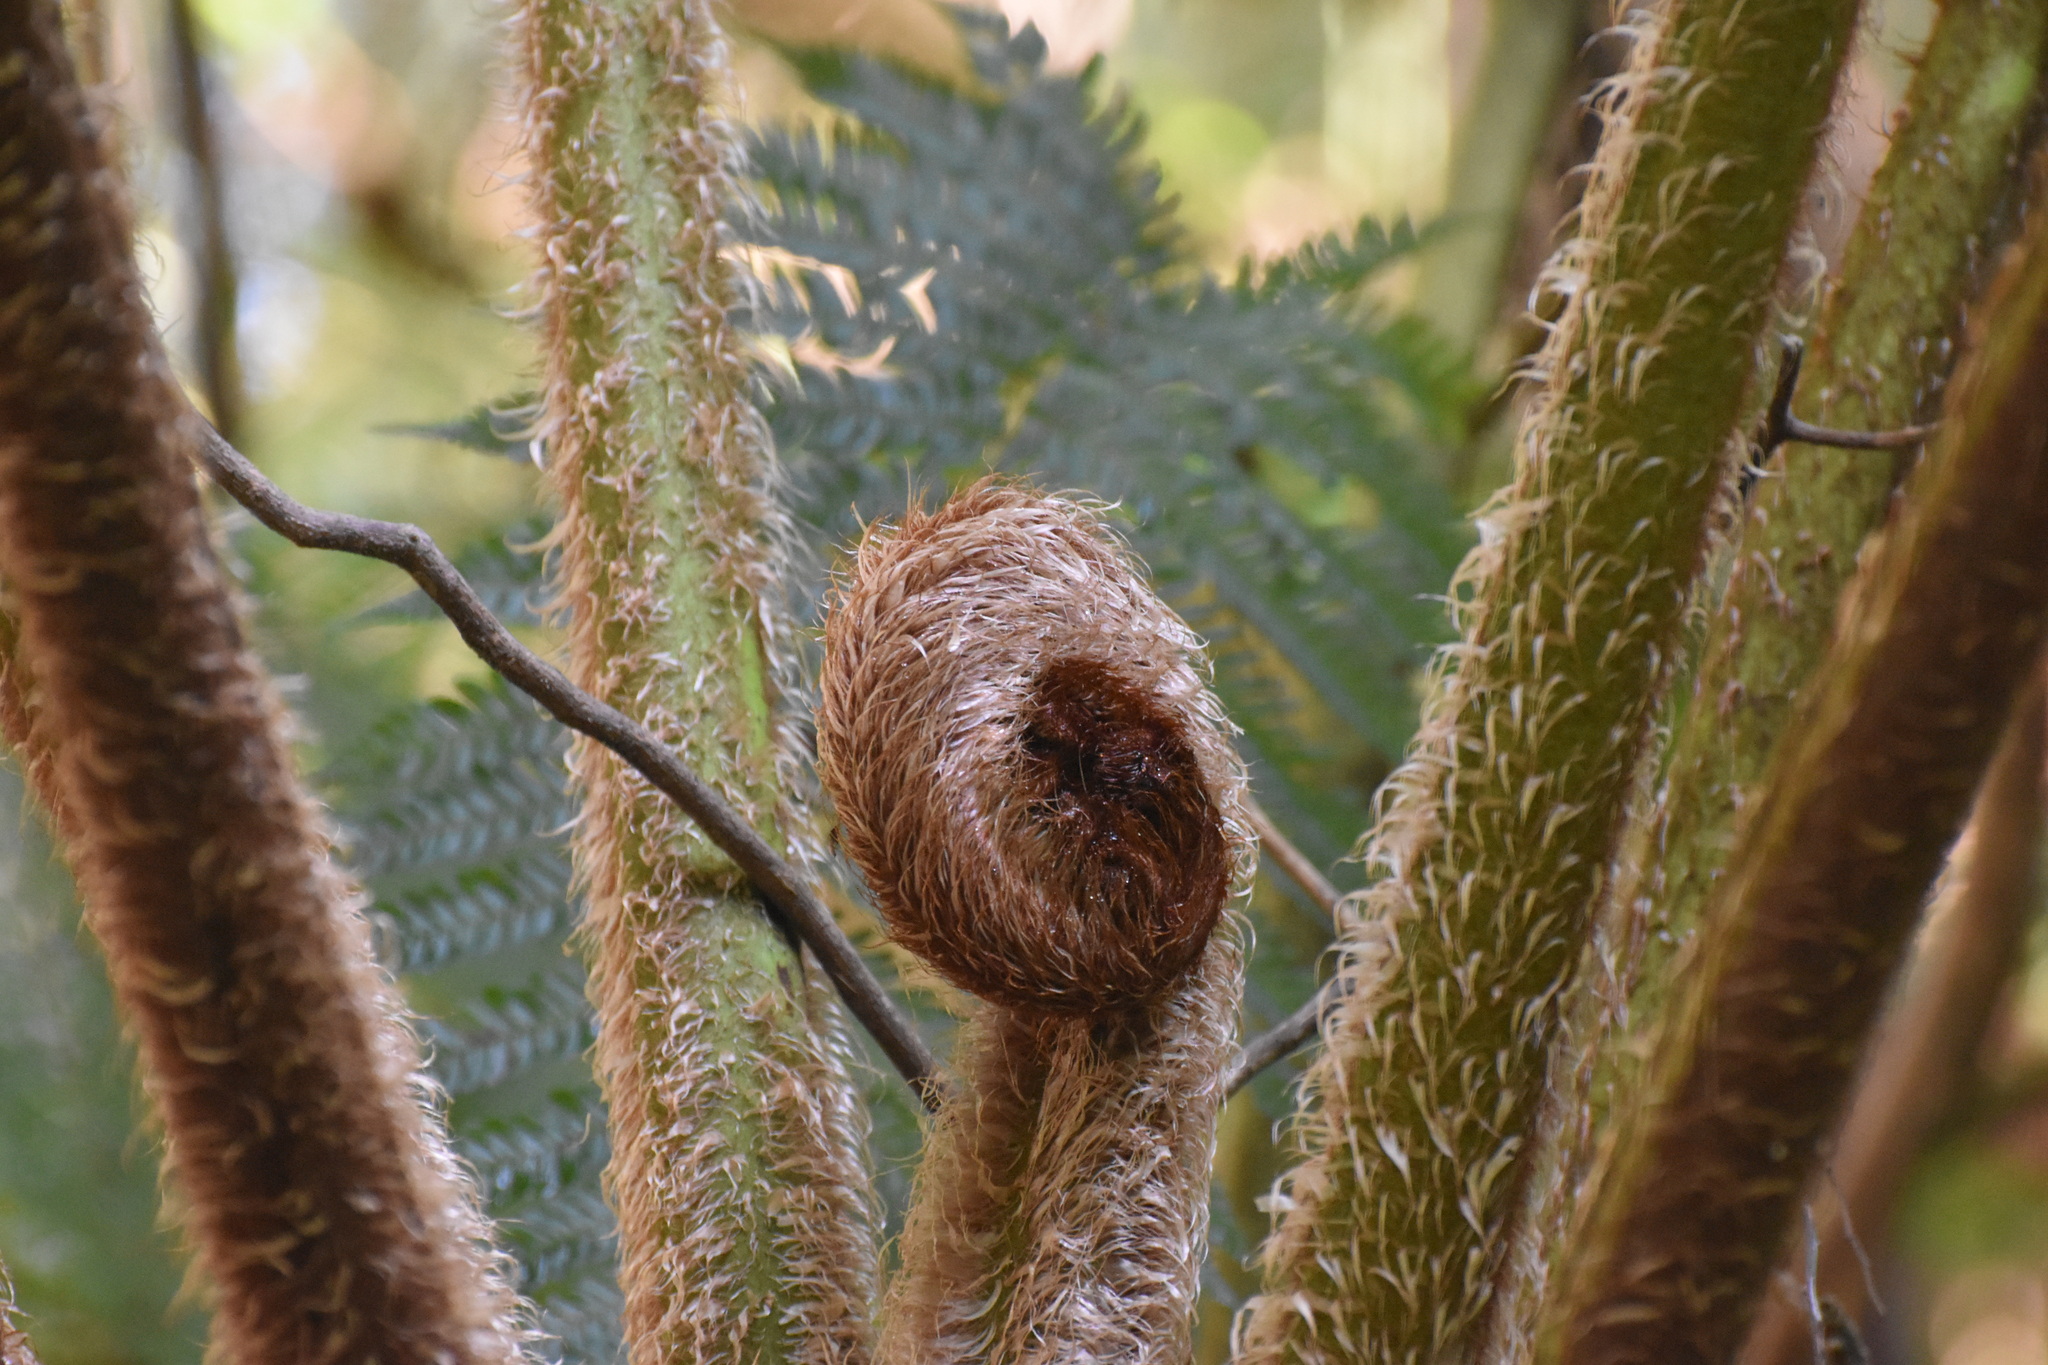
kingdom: Plantae
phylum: Tracheophyta
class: Polypodiopsida
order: Cyatheales
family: Cyatheaceae
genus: Sphaeropteris
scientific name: Sphaeropteris cooperi
